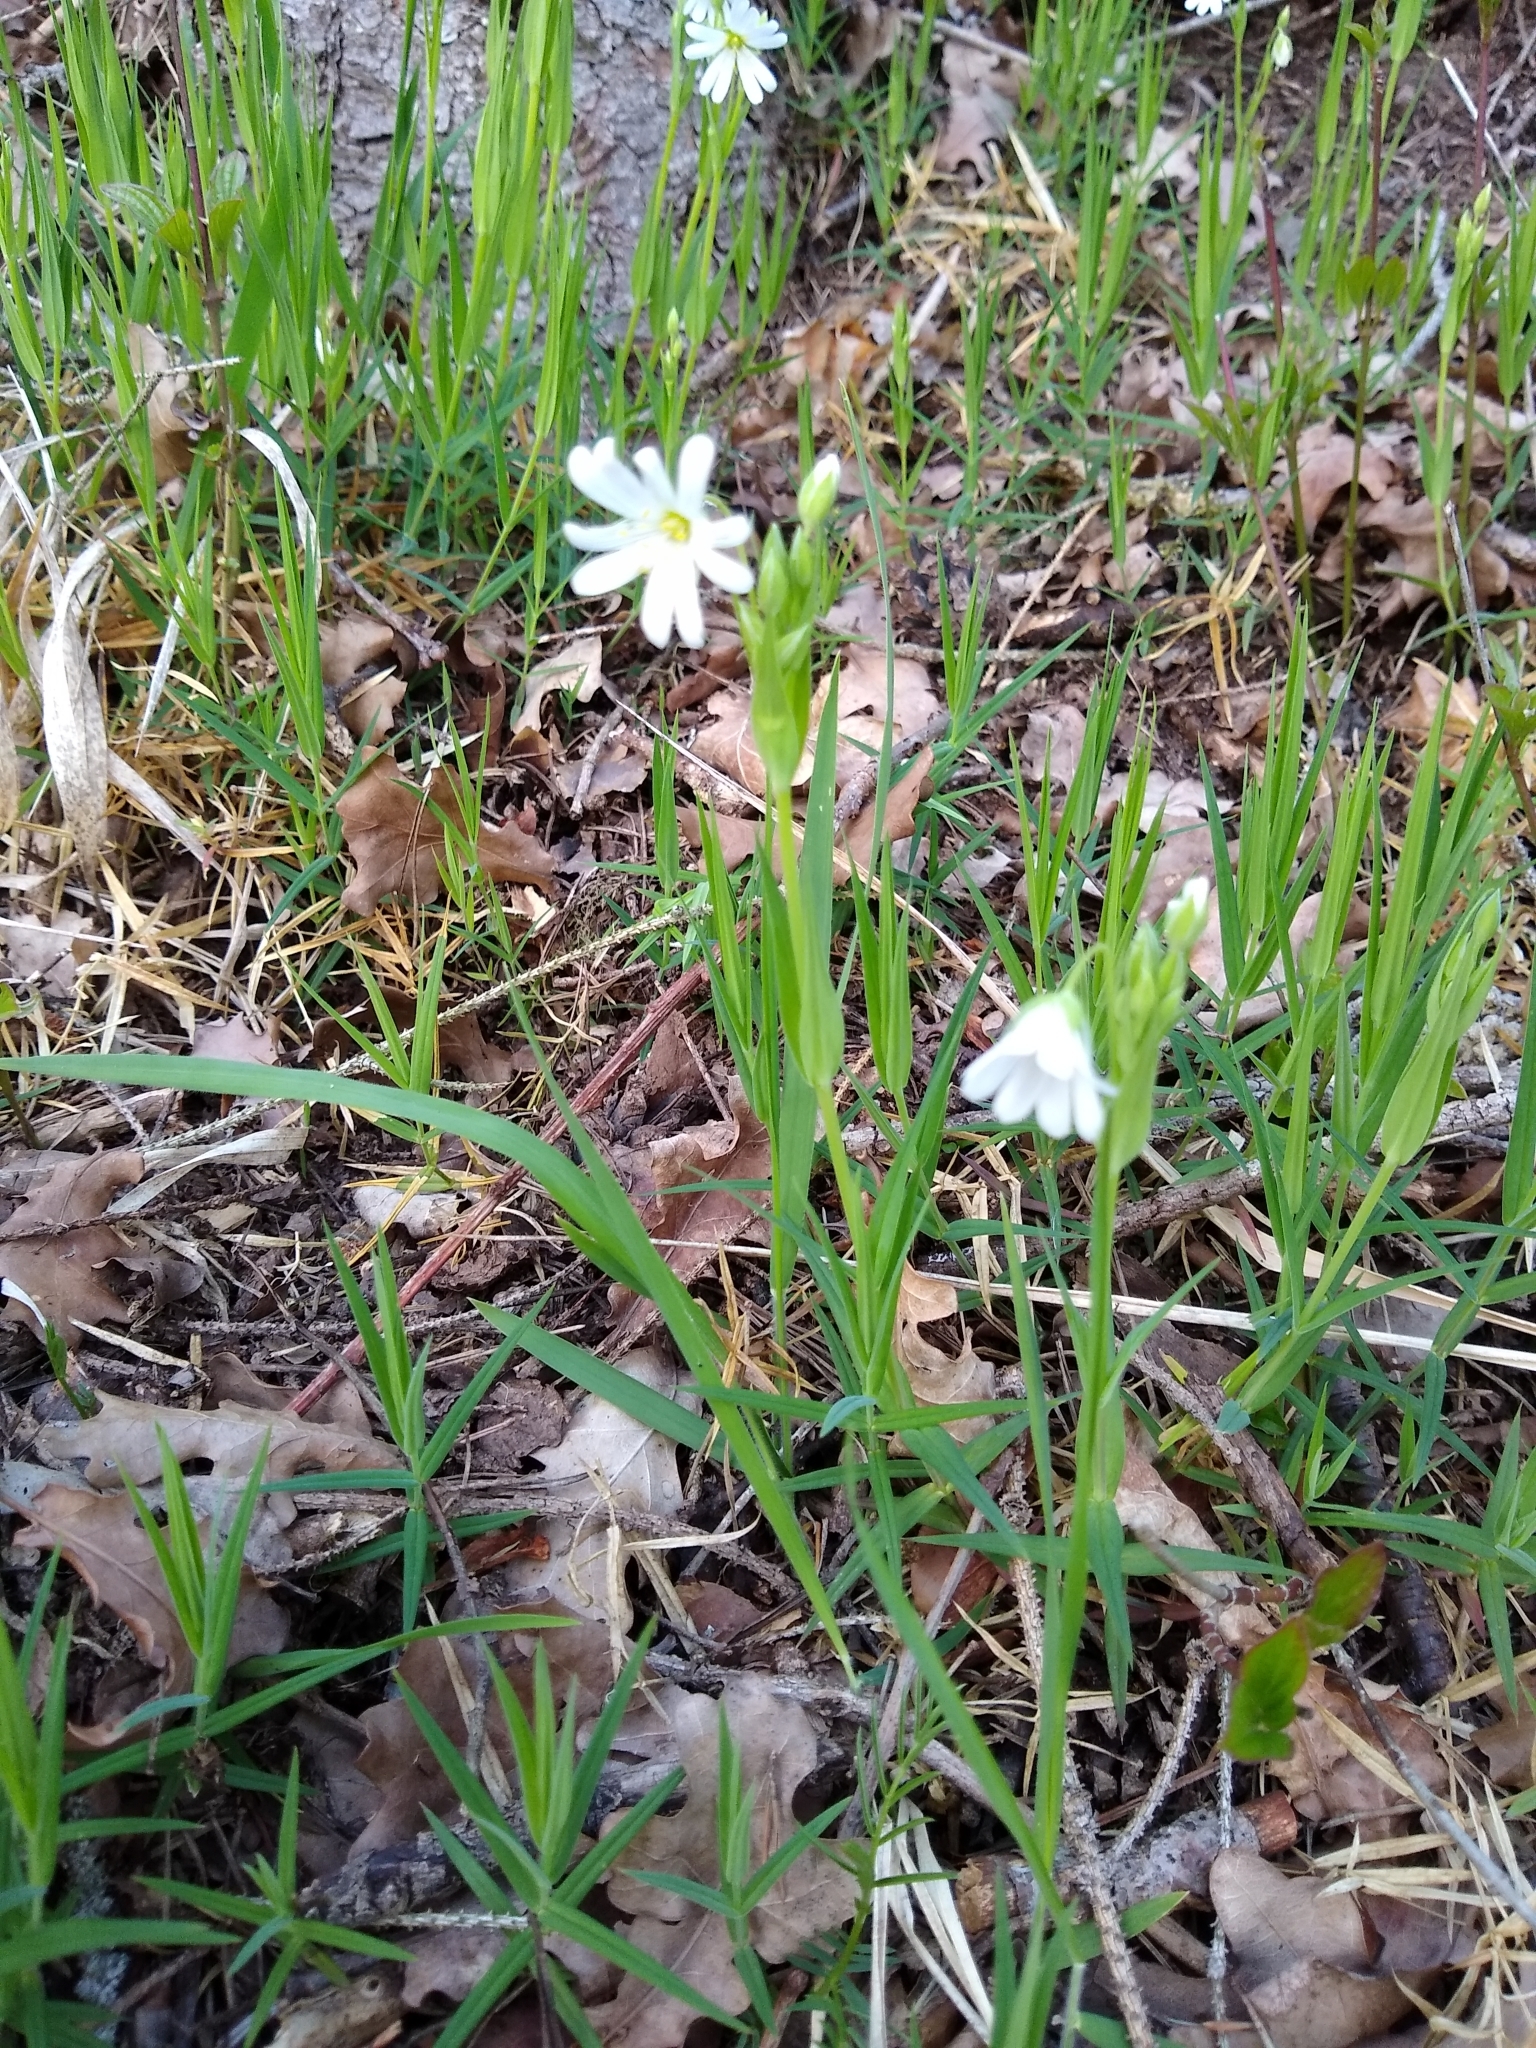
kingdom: Plantae
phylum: Tracheophyta
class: Magnoliopsida
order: Caryophyllales
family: Caryophyllaceae
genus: Rabelera
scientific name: Rabelera holostea
